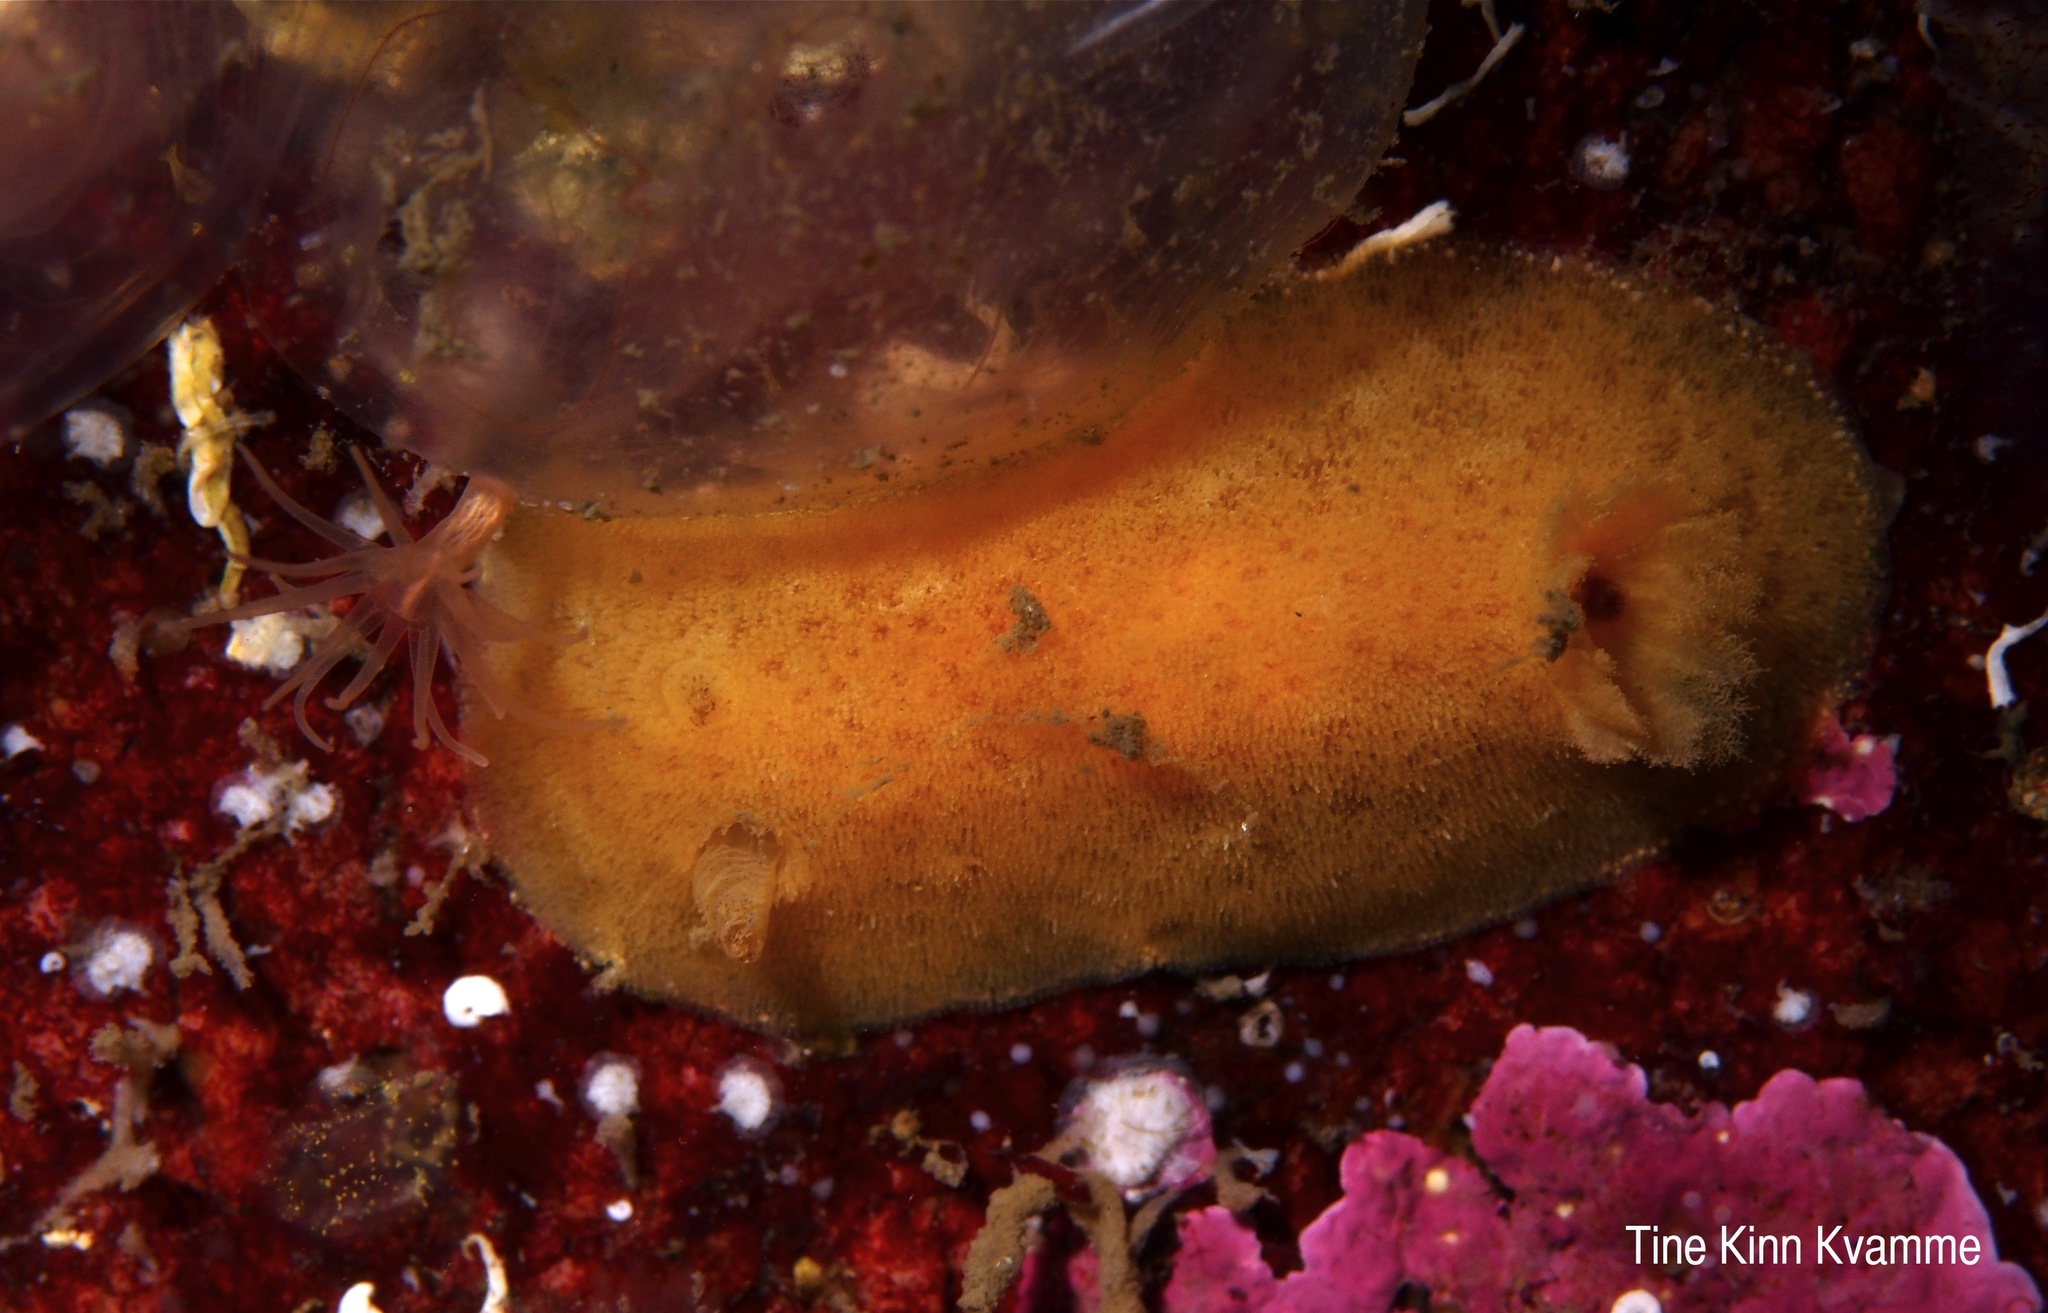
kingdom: Animalia
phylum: Mollusca
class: Gastropoda
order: Nudibranchia
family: Discodorididae
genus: Jorunna
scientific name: Jorunna tomentosa
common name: Grey sea slug
